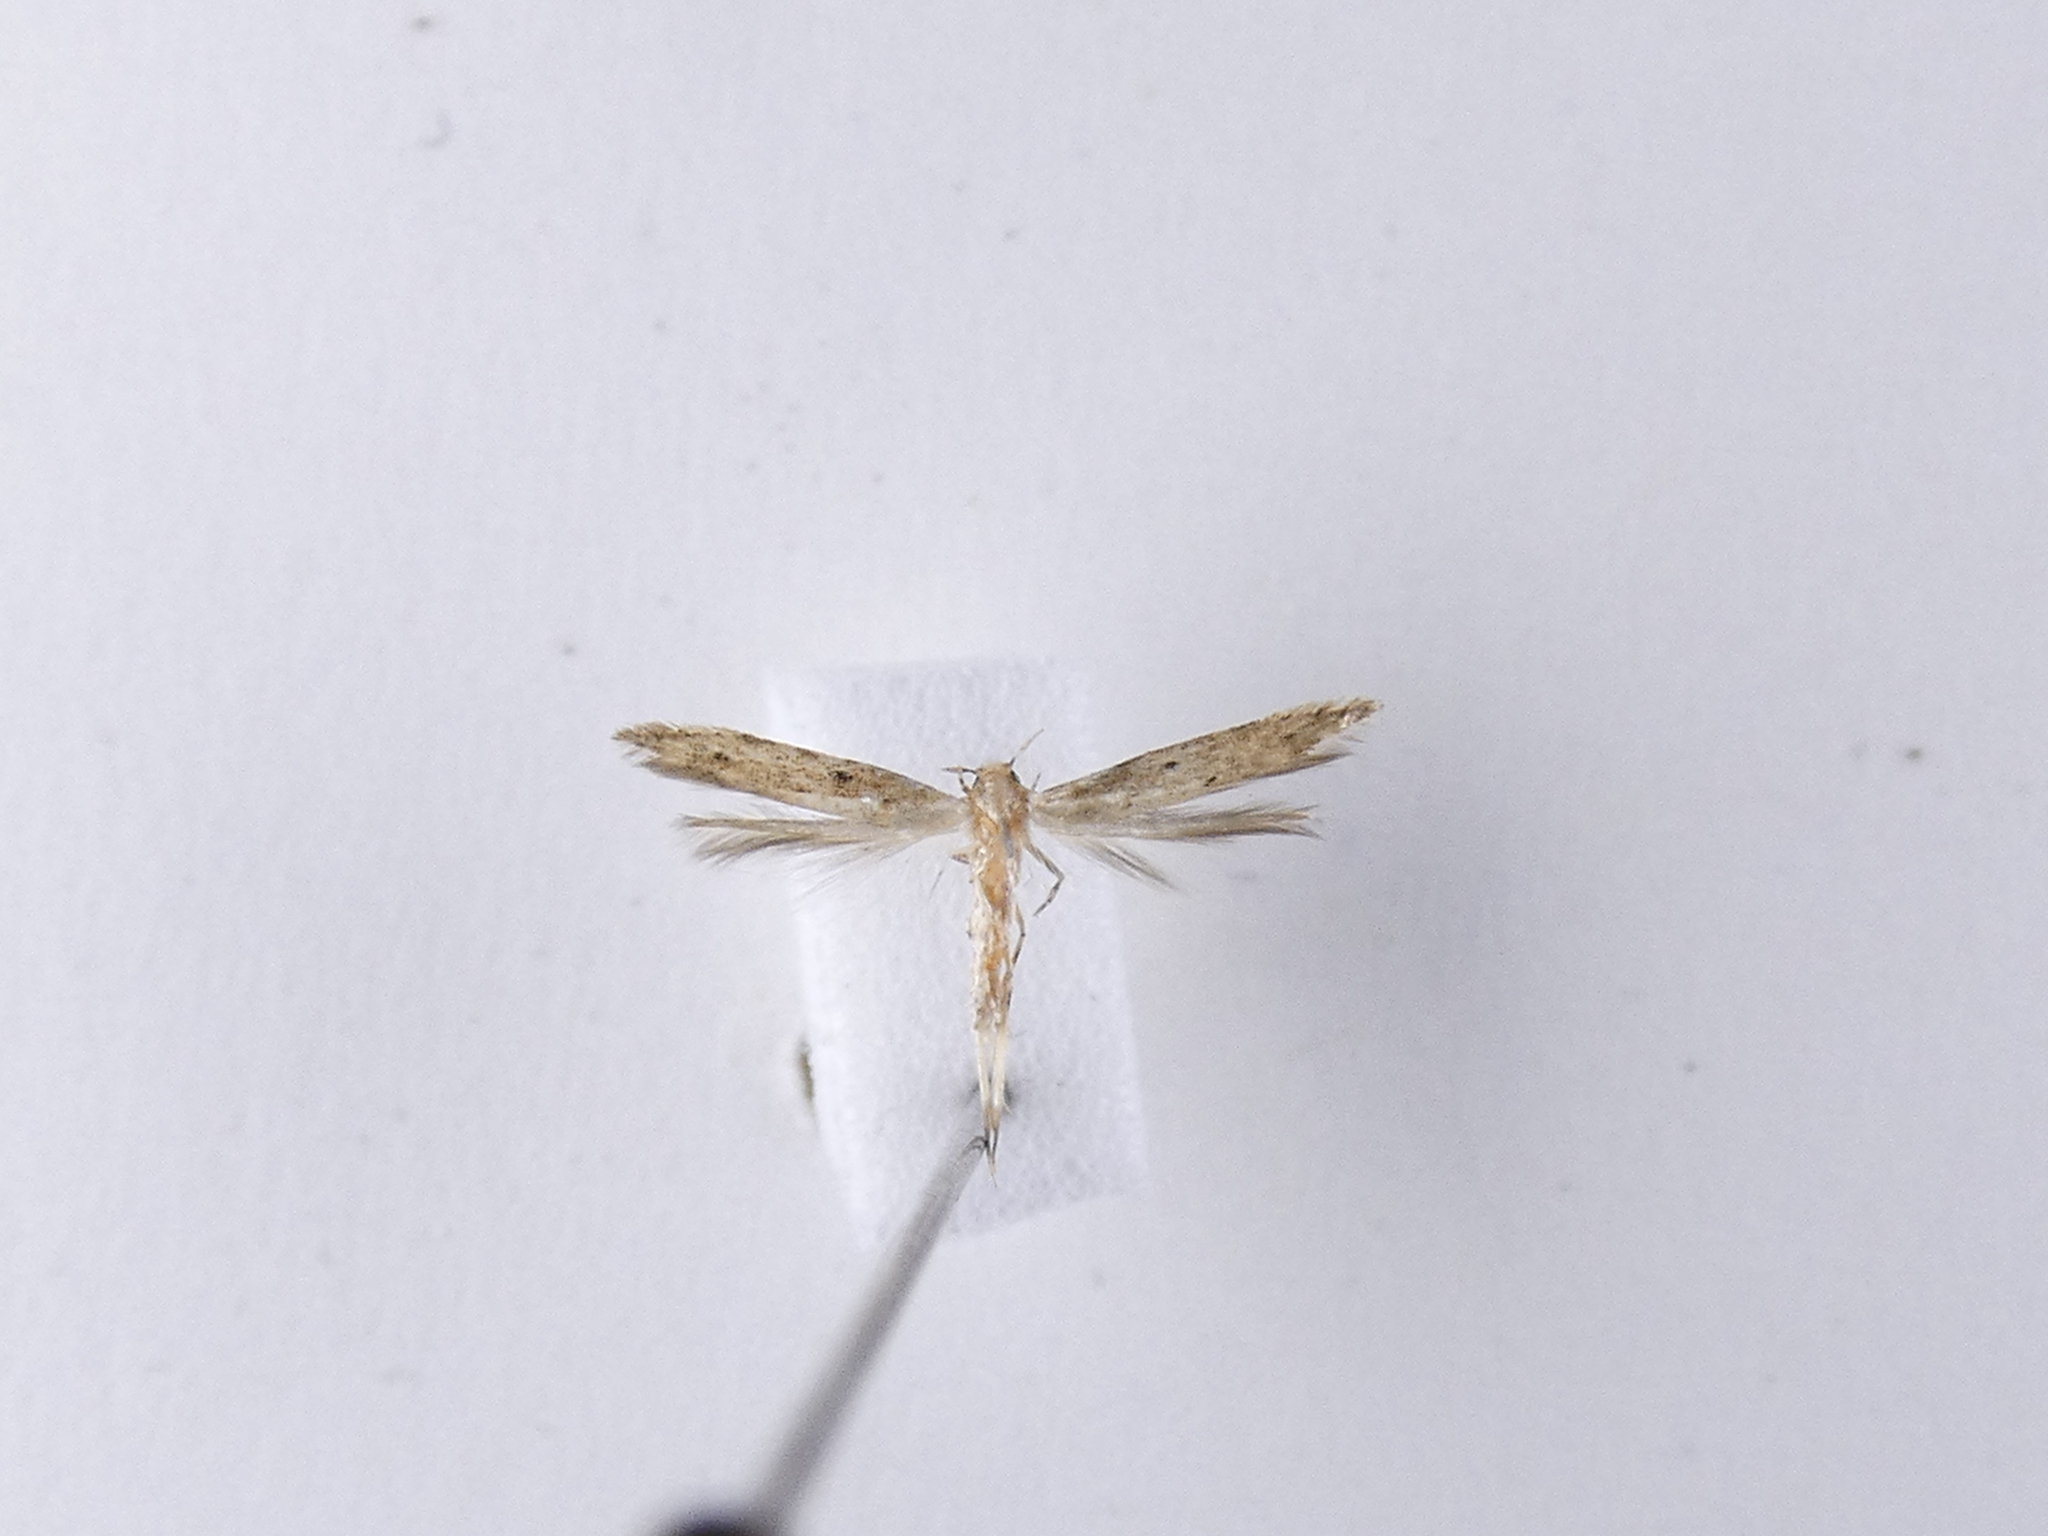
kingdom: Animalia
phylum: Arthropoda
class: Insecta
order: Lepidoptera
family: Elachistidae
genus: Microcolona
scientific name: Microcolona limodes
